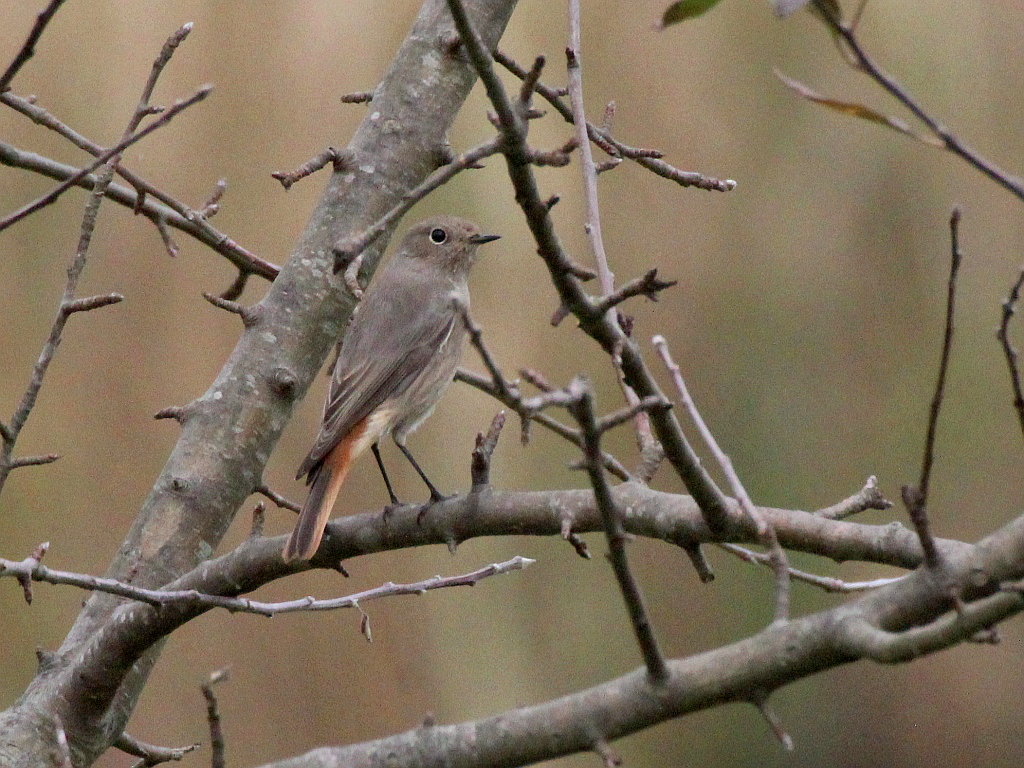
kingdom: Animalia
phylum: Chordata
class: Aves
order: Passeriformes
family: Muscicapidae
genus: Phoenicurus
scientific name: Phoenicurus ochruros
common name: Black redstart
